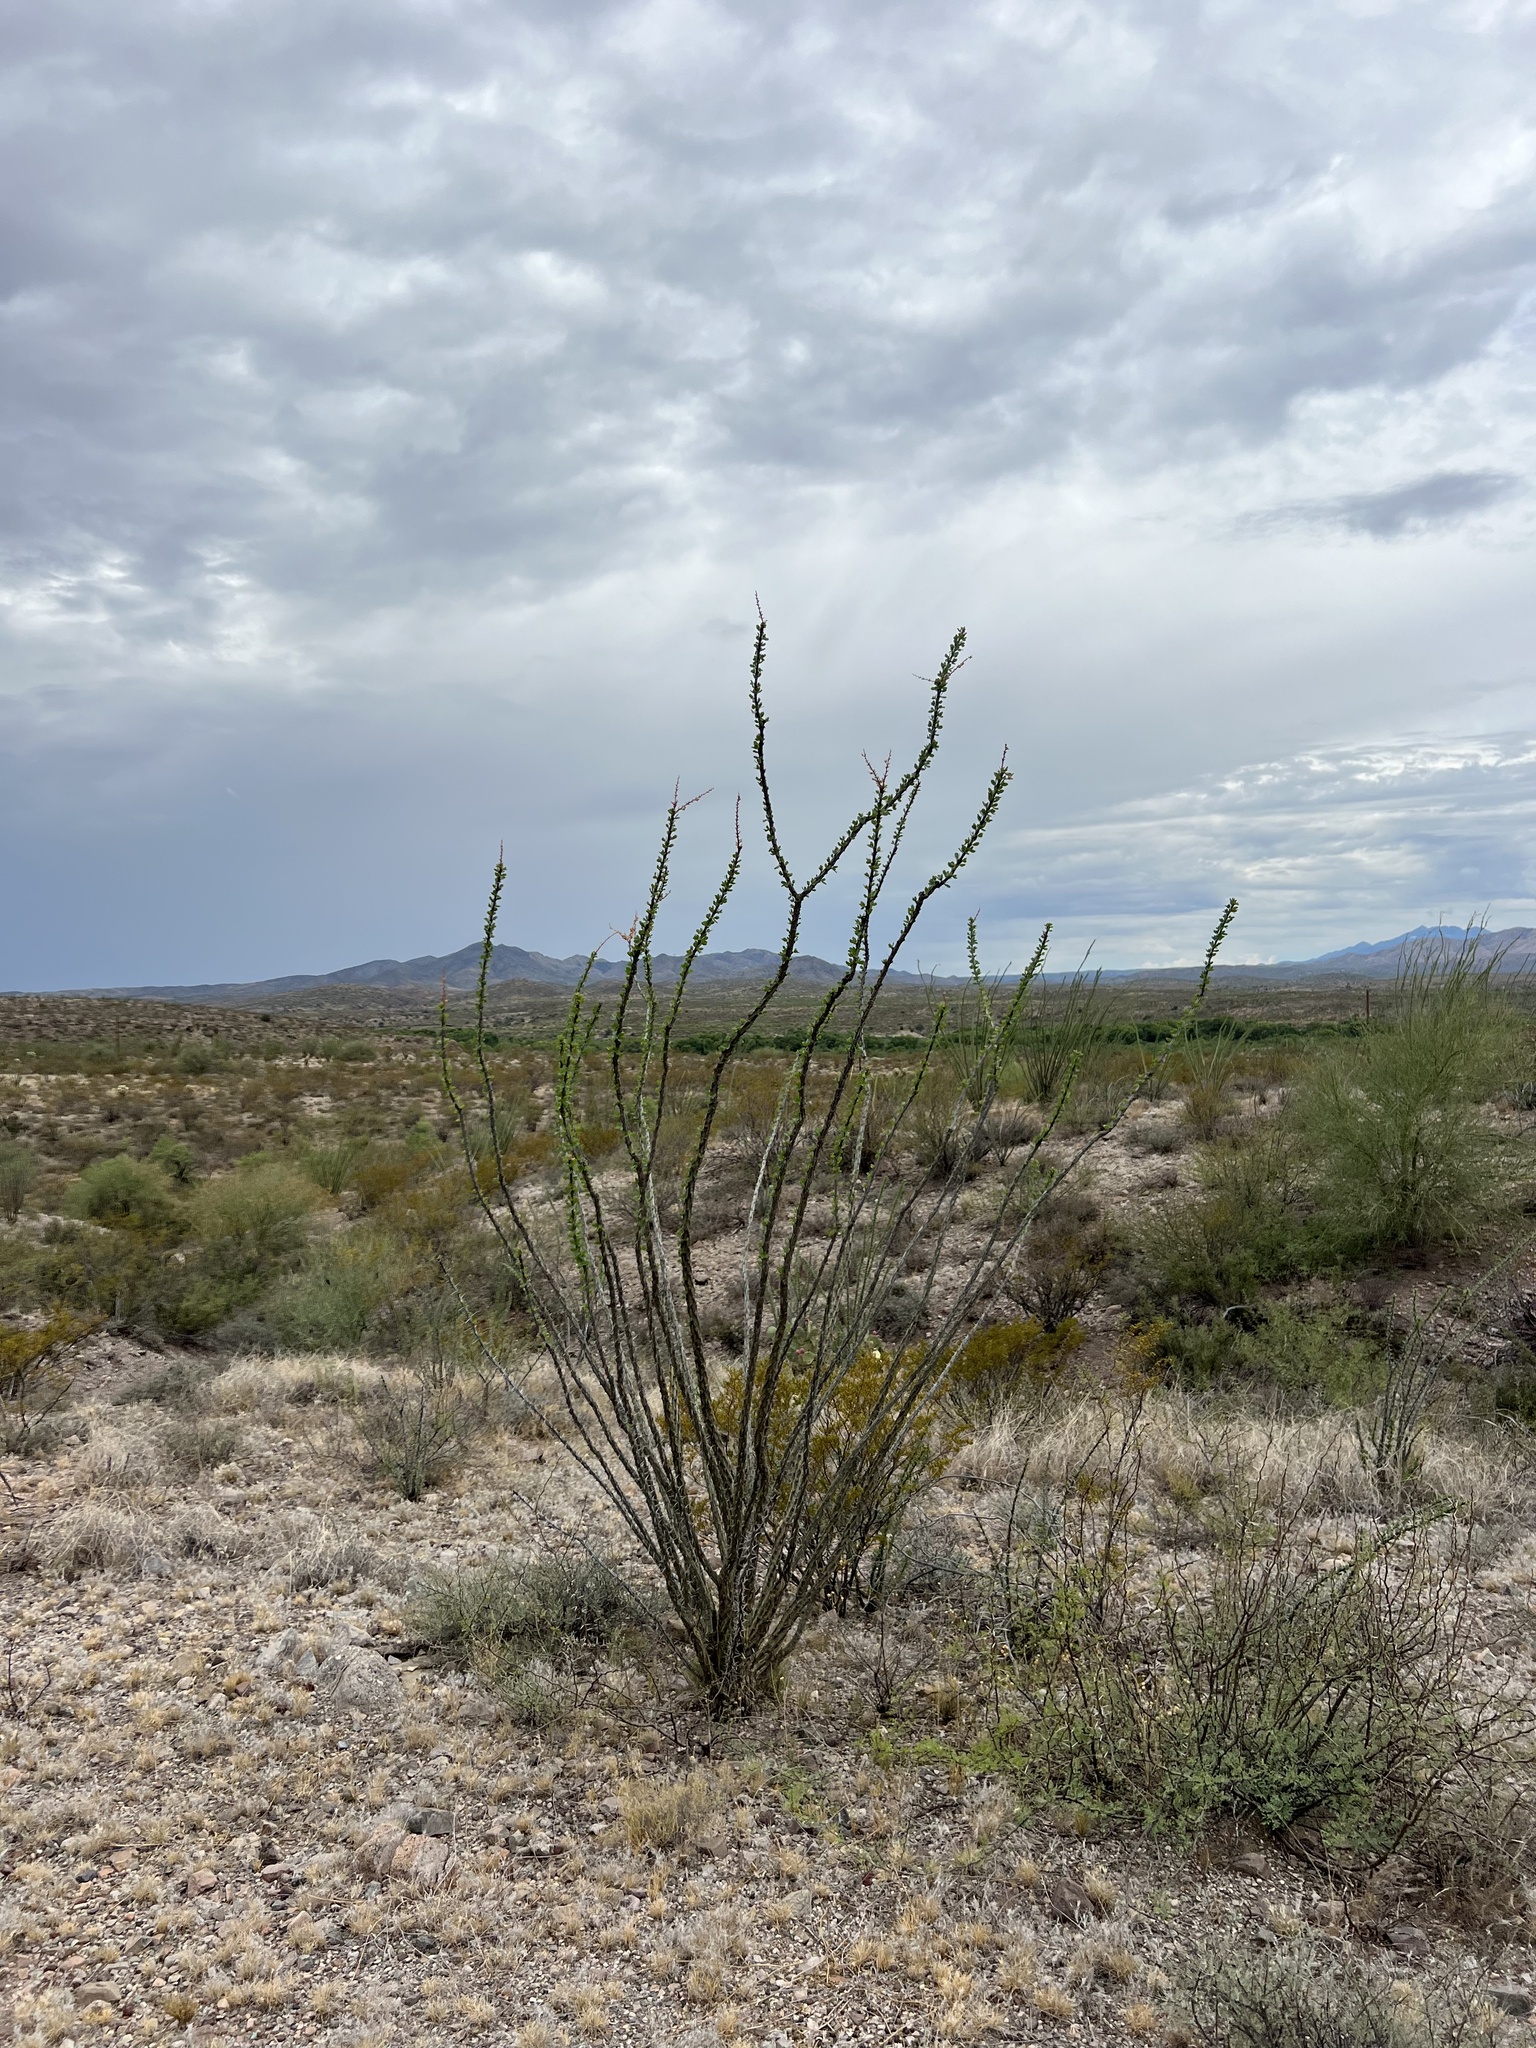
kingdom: Plantae
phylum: Tracheophyta
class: Magnoliopsida
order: Ericales
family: Fouquieriaceae
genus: Fouquieria
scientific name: Fouquieria splendens
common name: Vine-cactus
